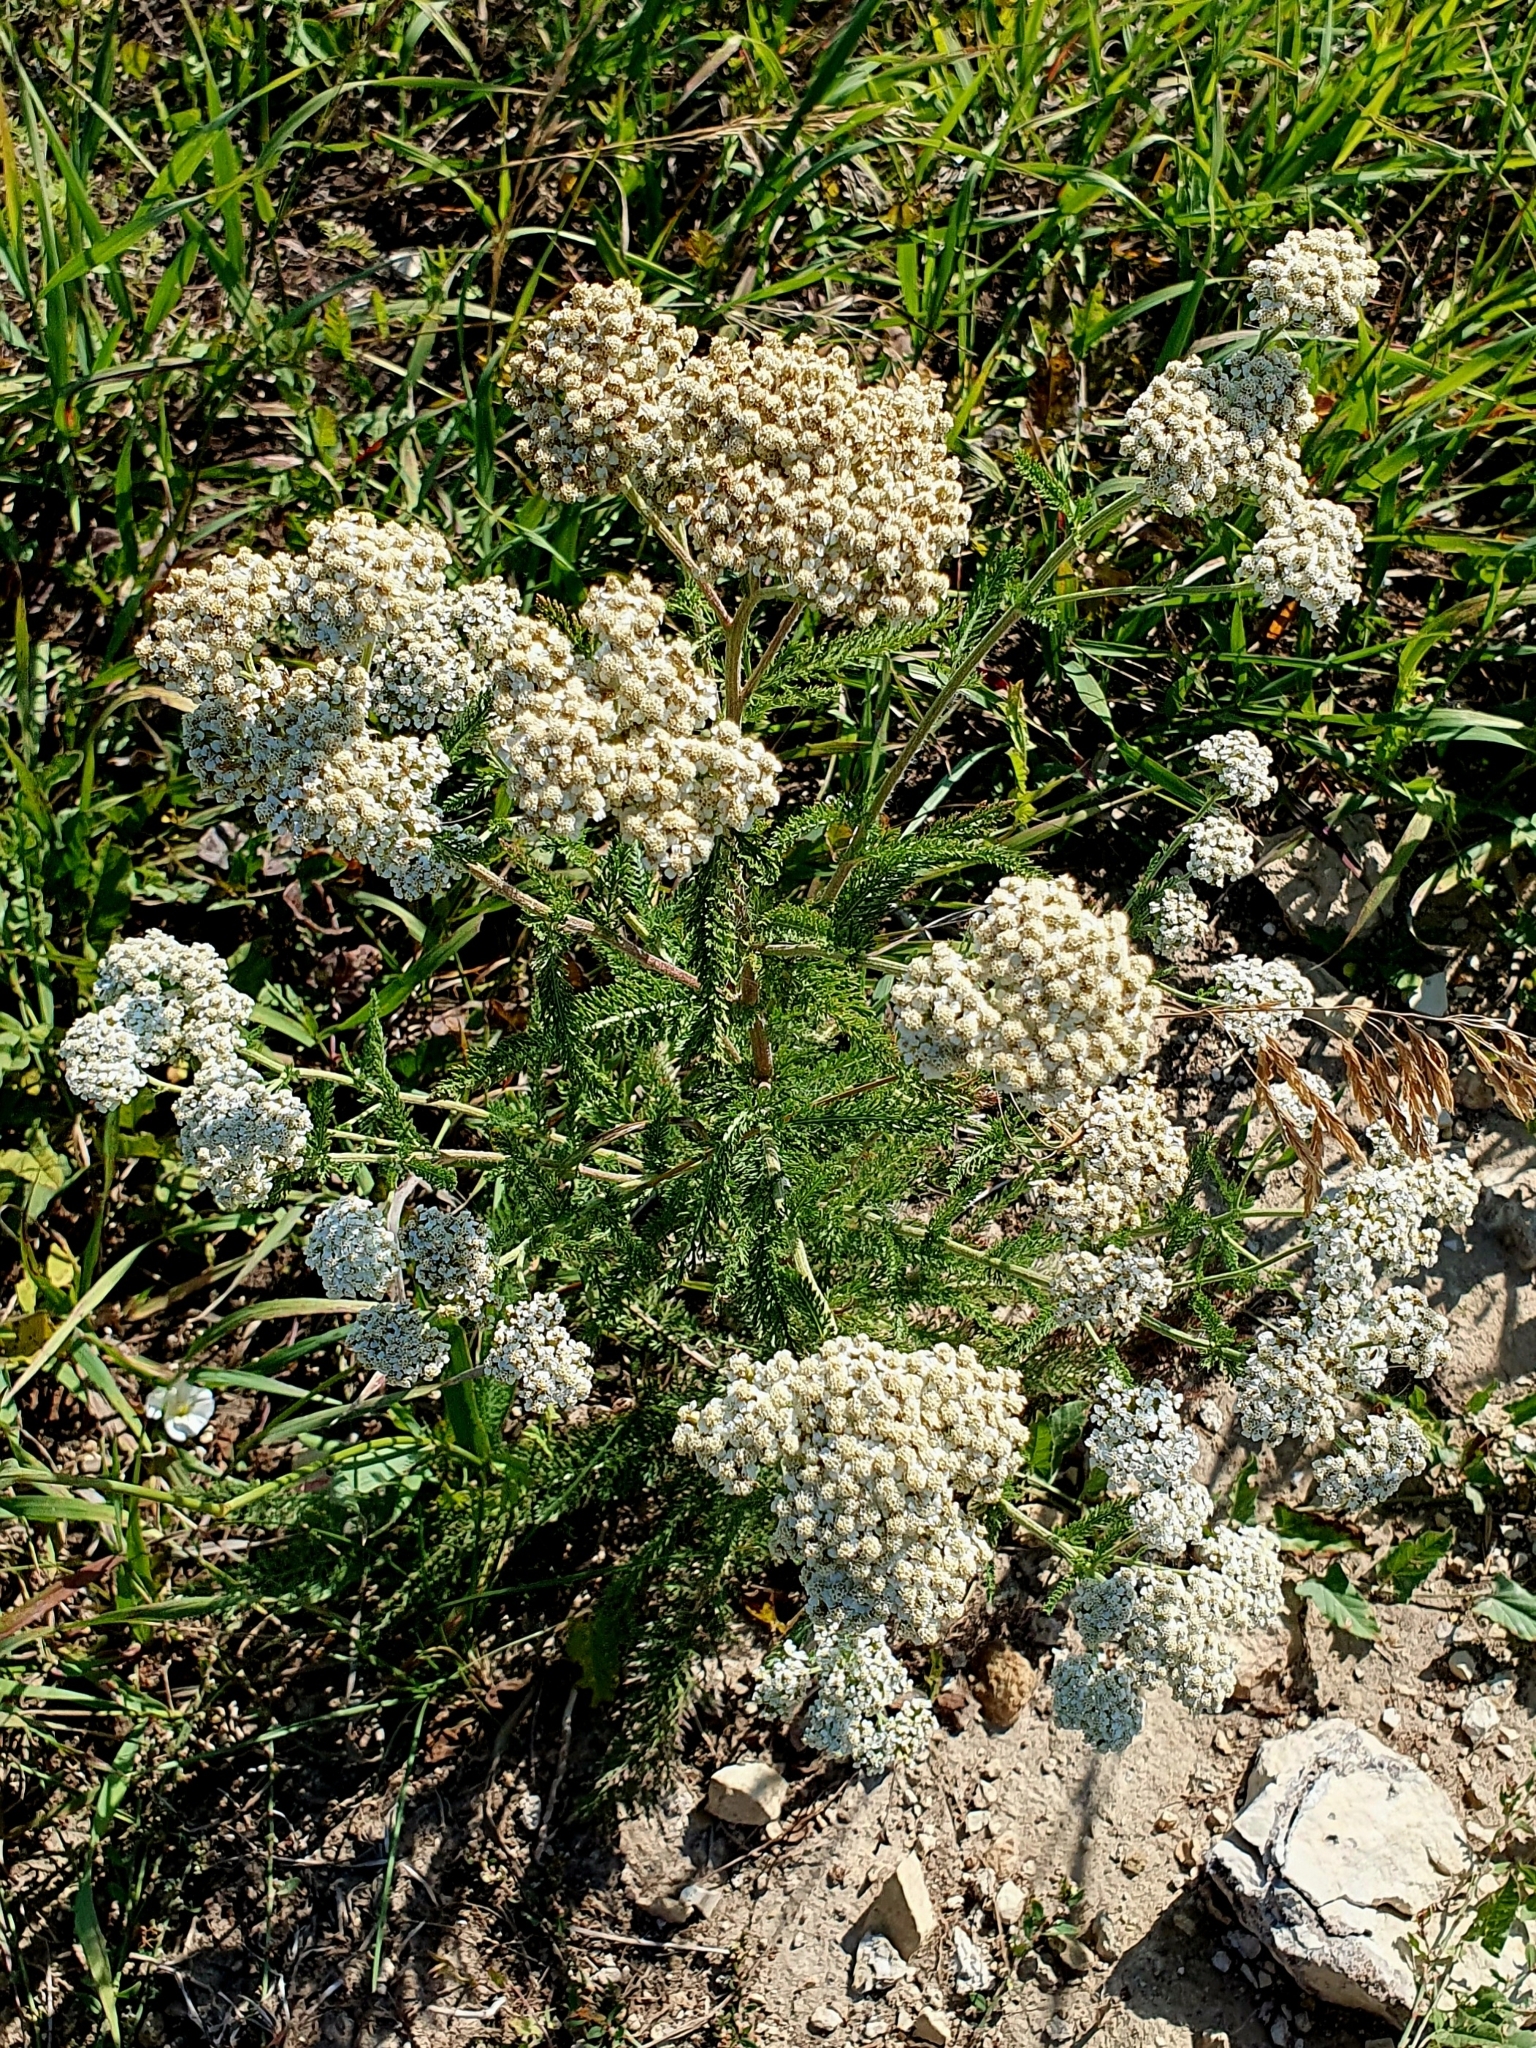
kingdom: Plantae
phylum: Tracheophyta
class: Magnoliopsida
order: Asterales
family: Asteraceae
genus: Achillea
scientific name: Achillea millefolium
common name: Yarrow
